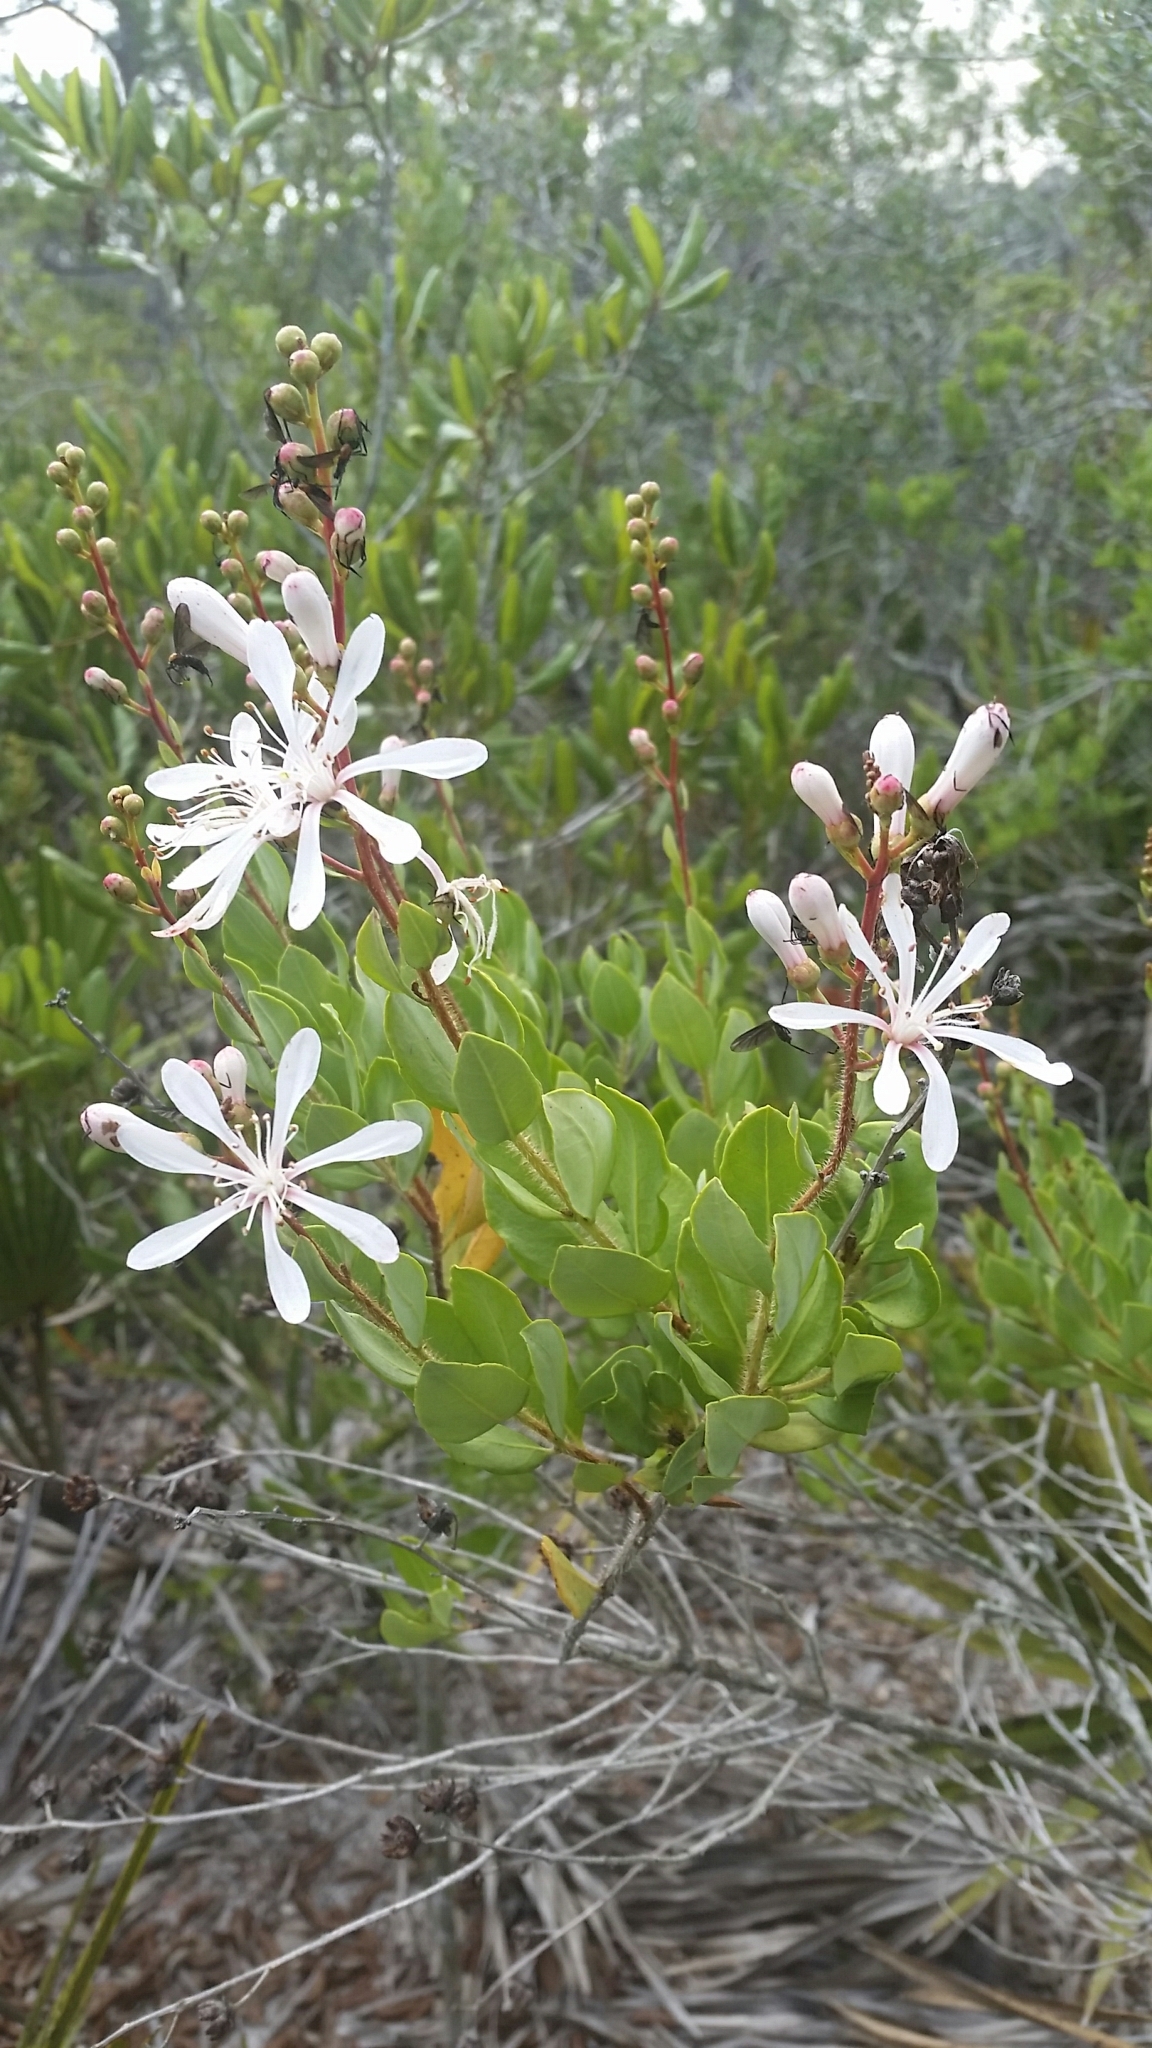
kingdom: Plantae
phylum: Tracheophyta
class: Magnoliopsida
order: Ericales
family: Ericaceae
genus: Bejaria
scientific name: Bejaria racemosa
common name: Tarflower
